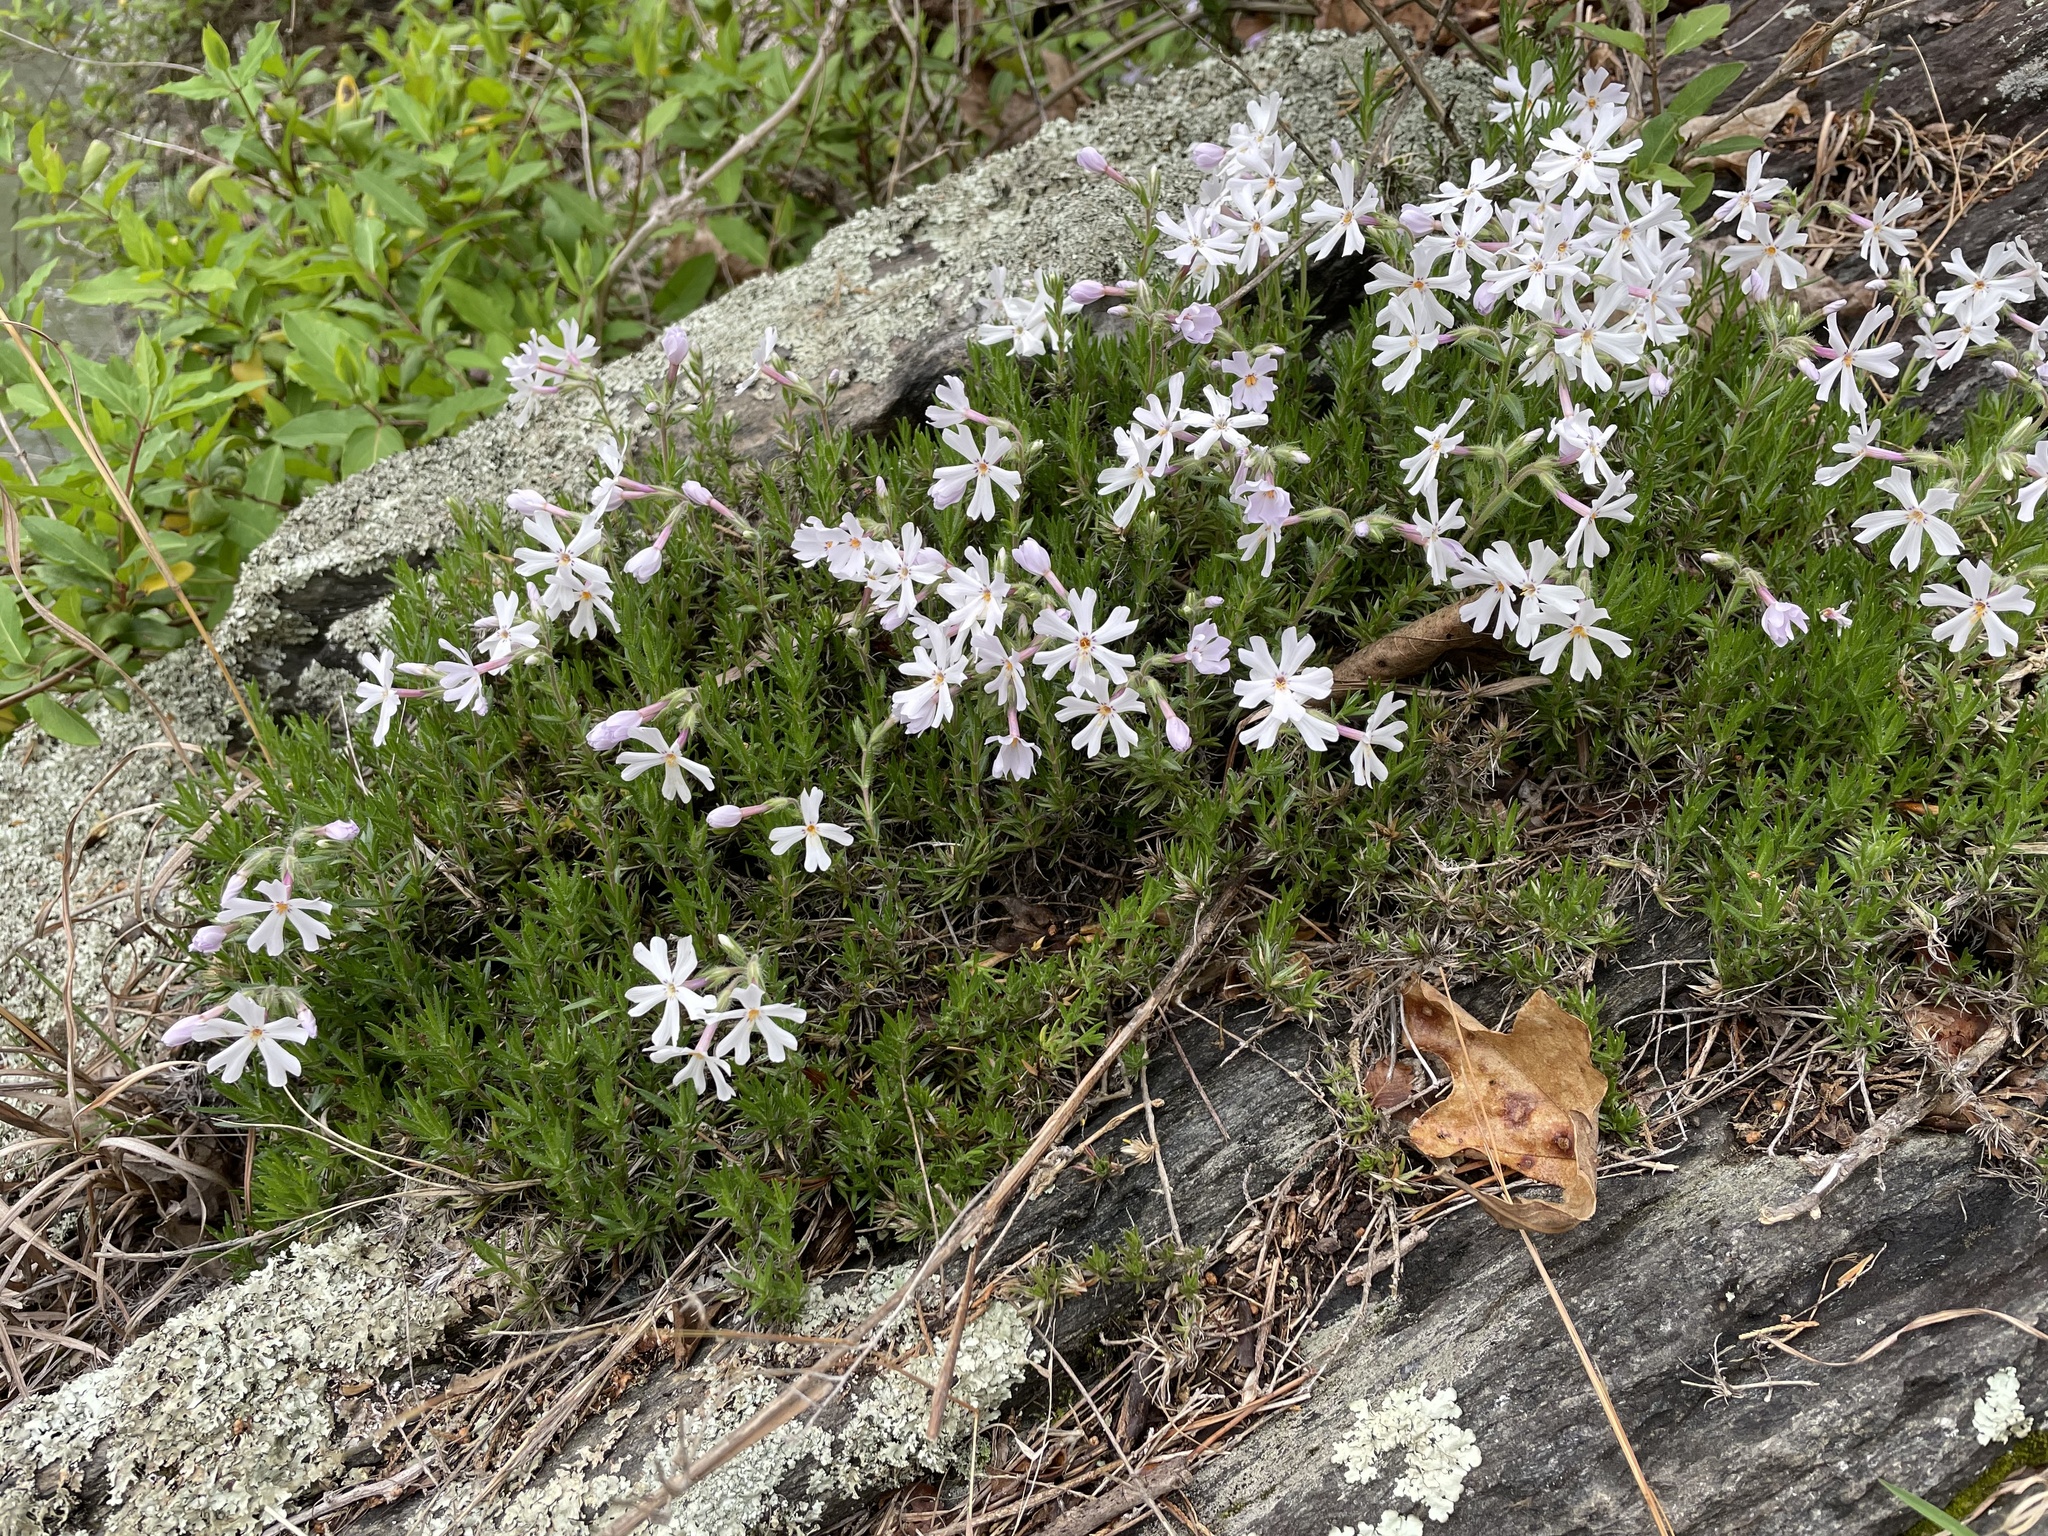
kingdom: Plantae
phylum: Tracheophyta
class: Magnoliopsida
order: Ericales
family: Polemoniaceae
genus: Phlox
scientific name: Phlox subulata
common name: Moss phlox
